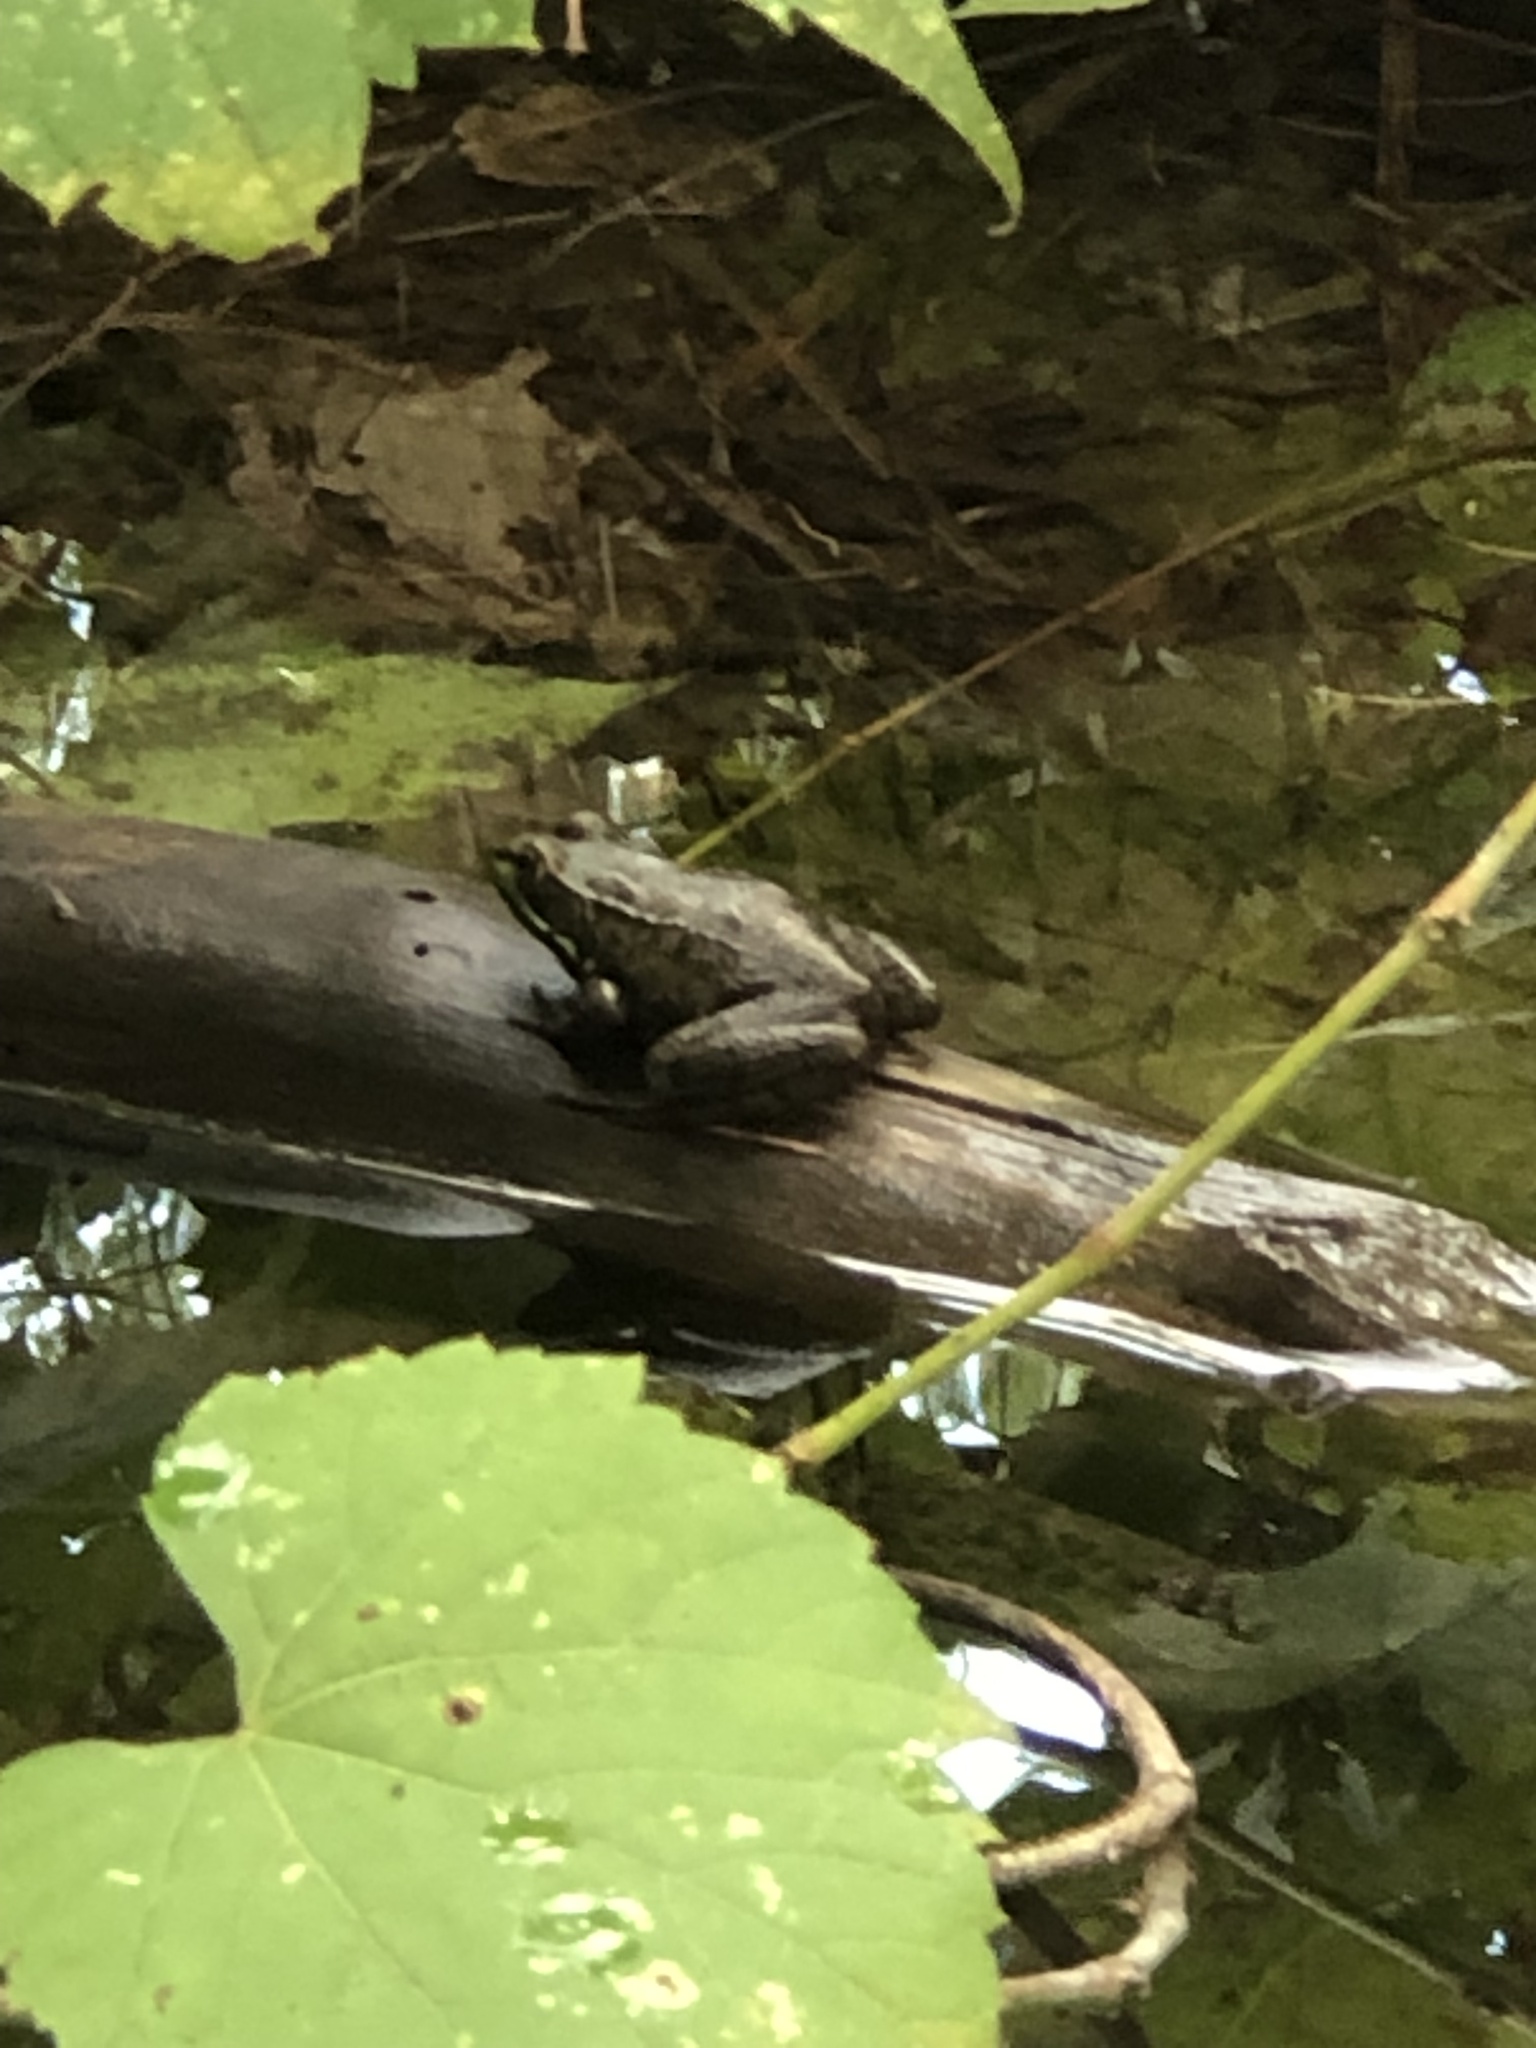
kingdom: Animalia
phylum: Chordata
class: Amphibia
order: Anura
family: Ranidae
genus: Lithobates
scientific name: Lithobates clamitans
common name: Green frog
